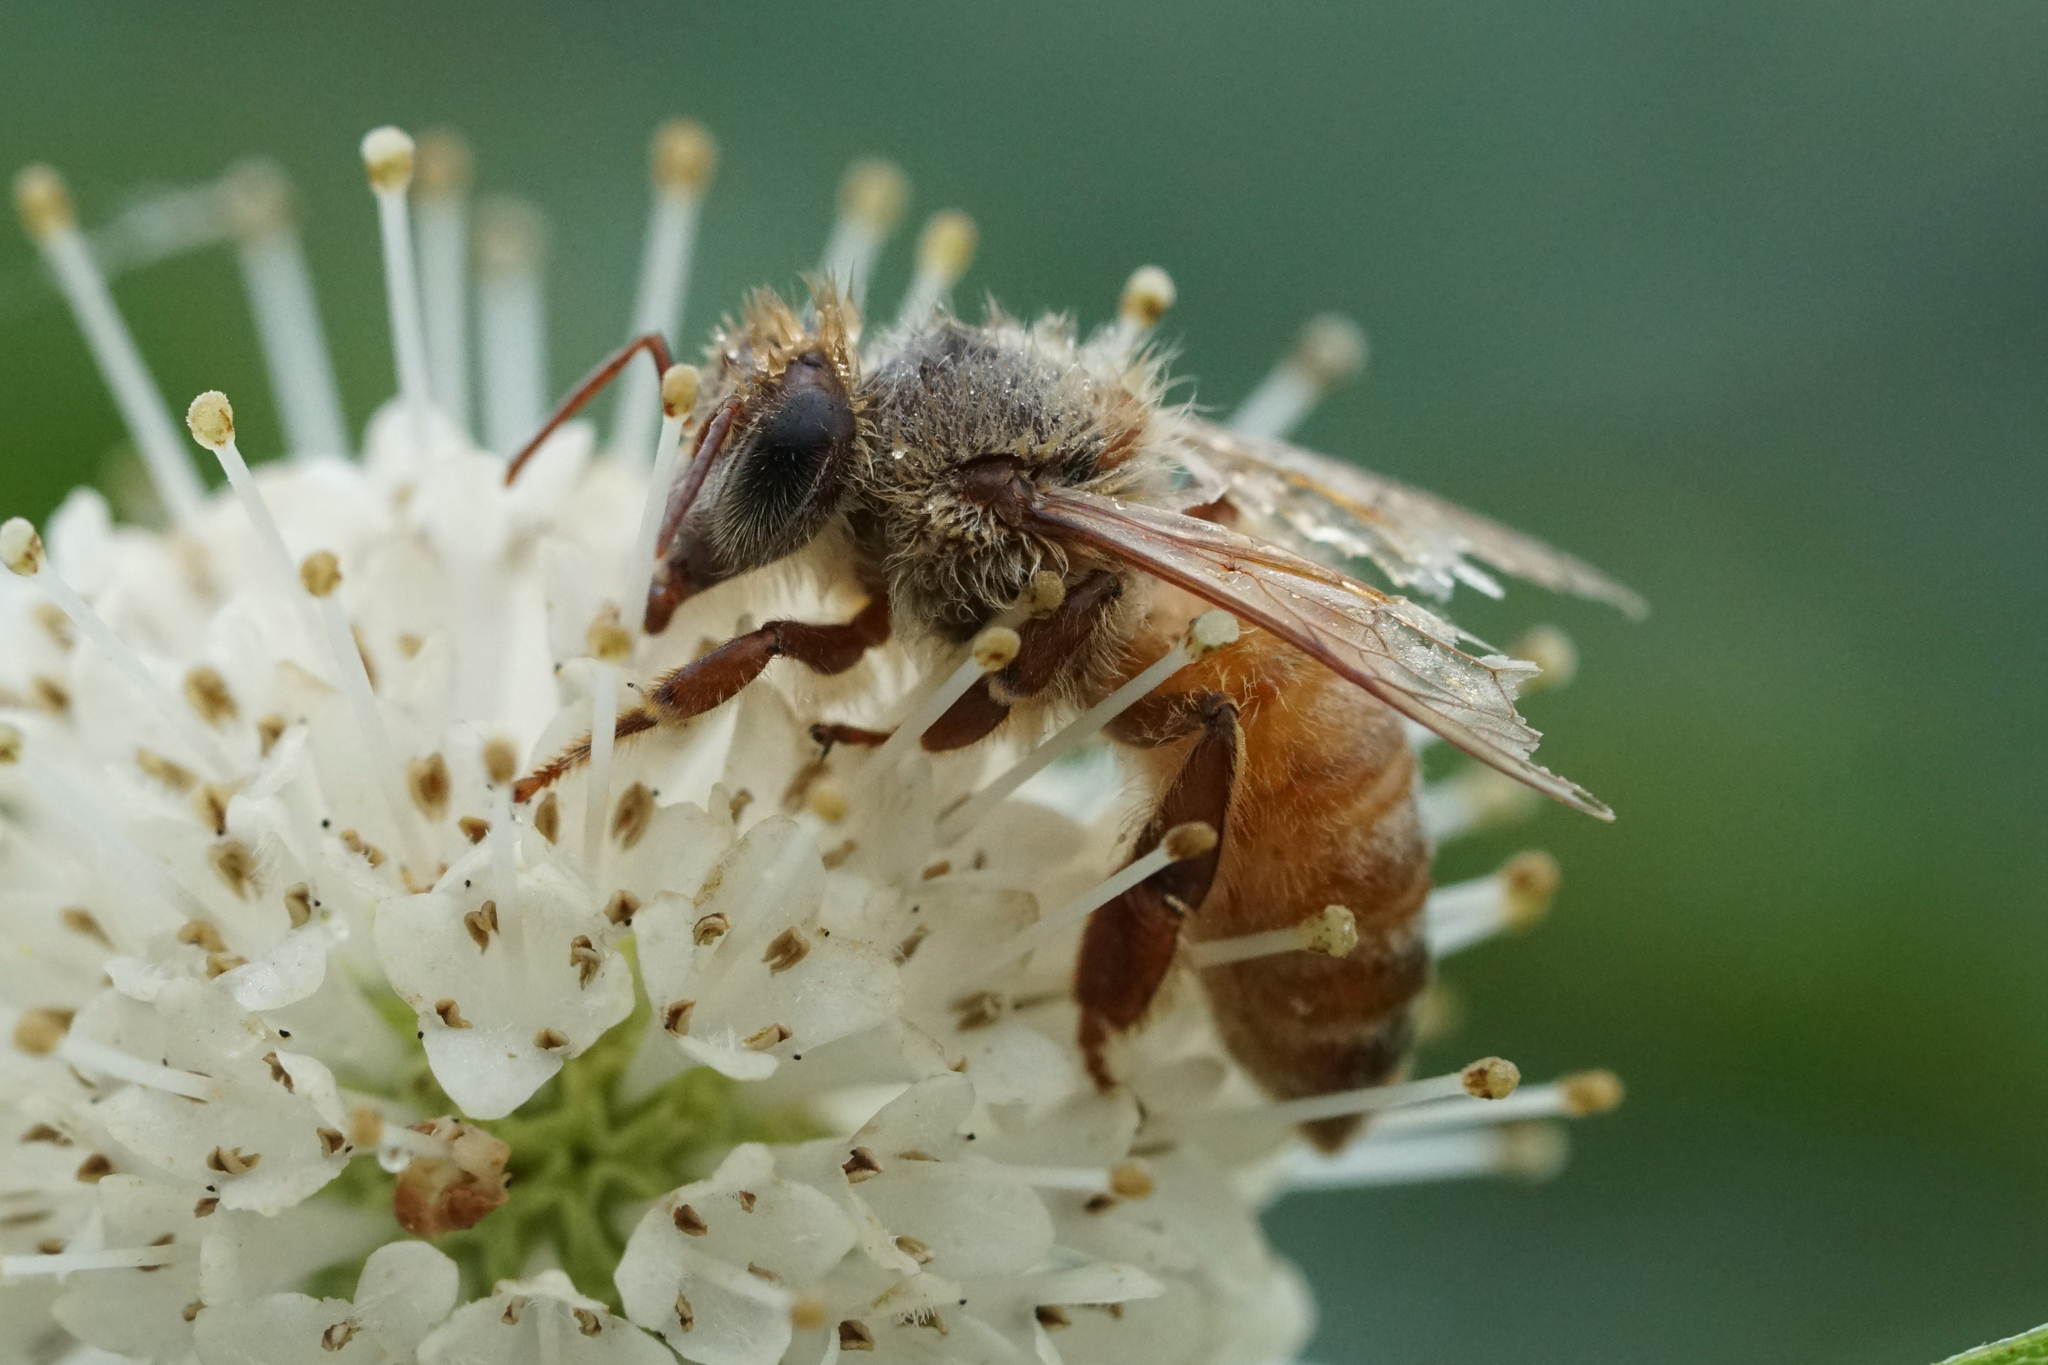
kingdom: Animalia
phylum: Arthropoda
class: Insecta
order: Hymenoptera
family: Apidae
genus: Apis
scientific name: Apis mellifera
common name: Honey bee
